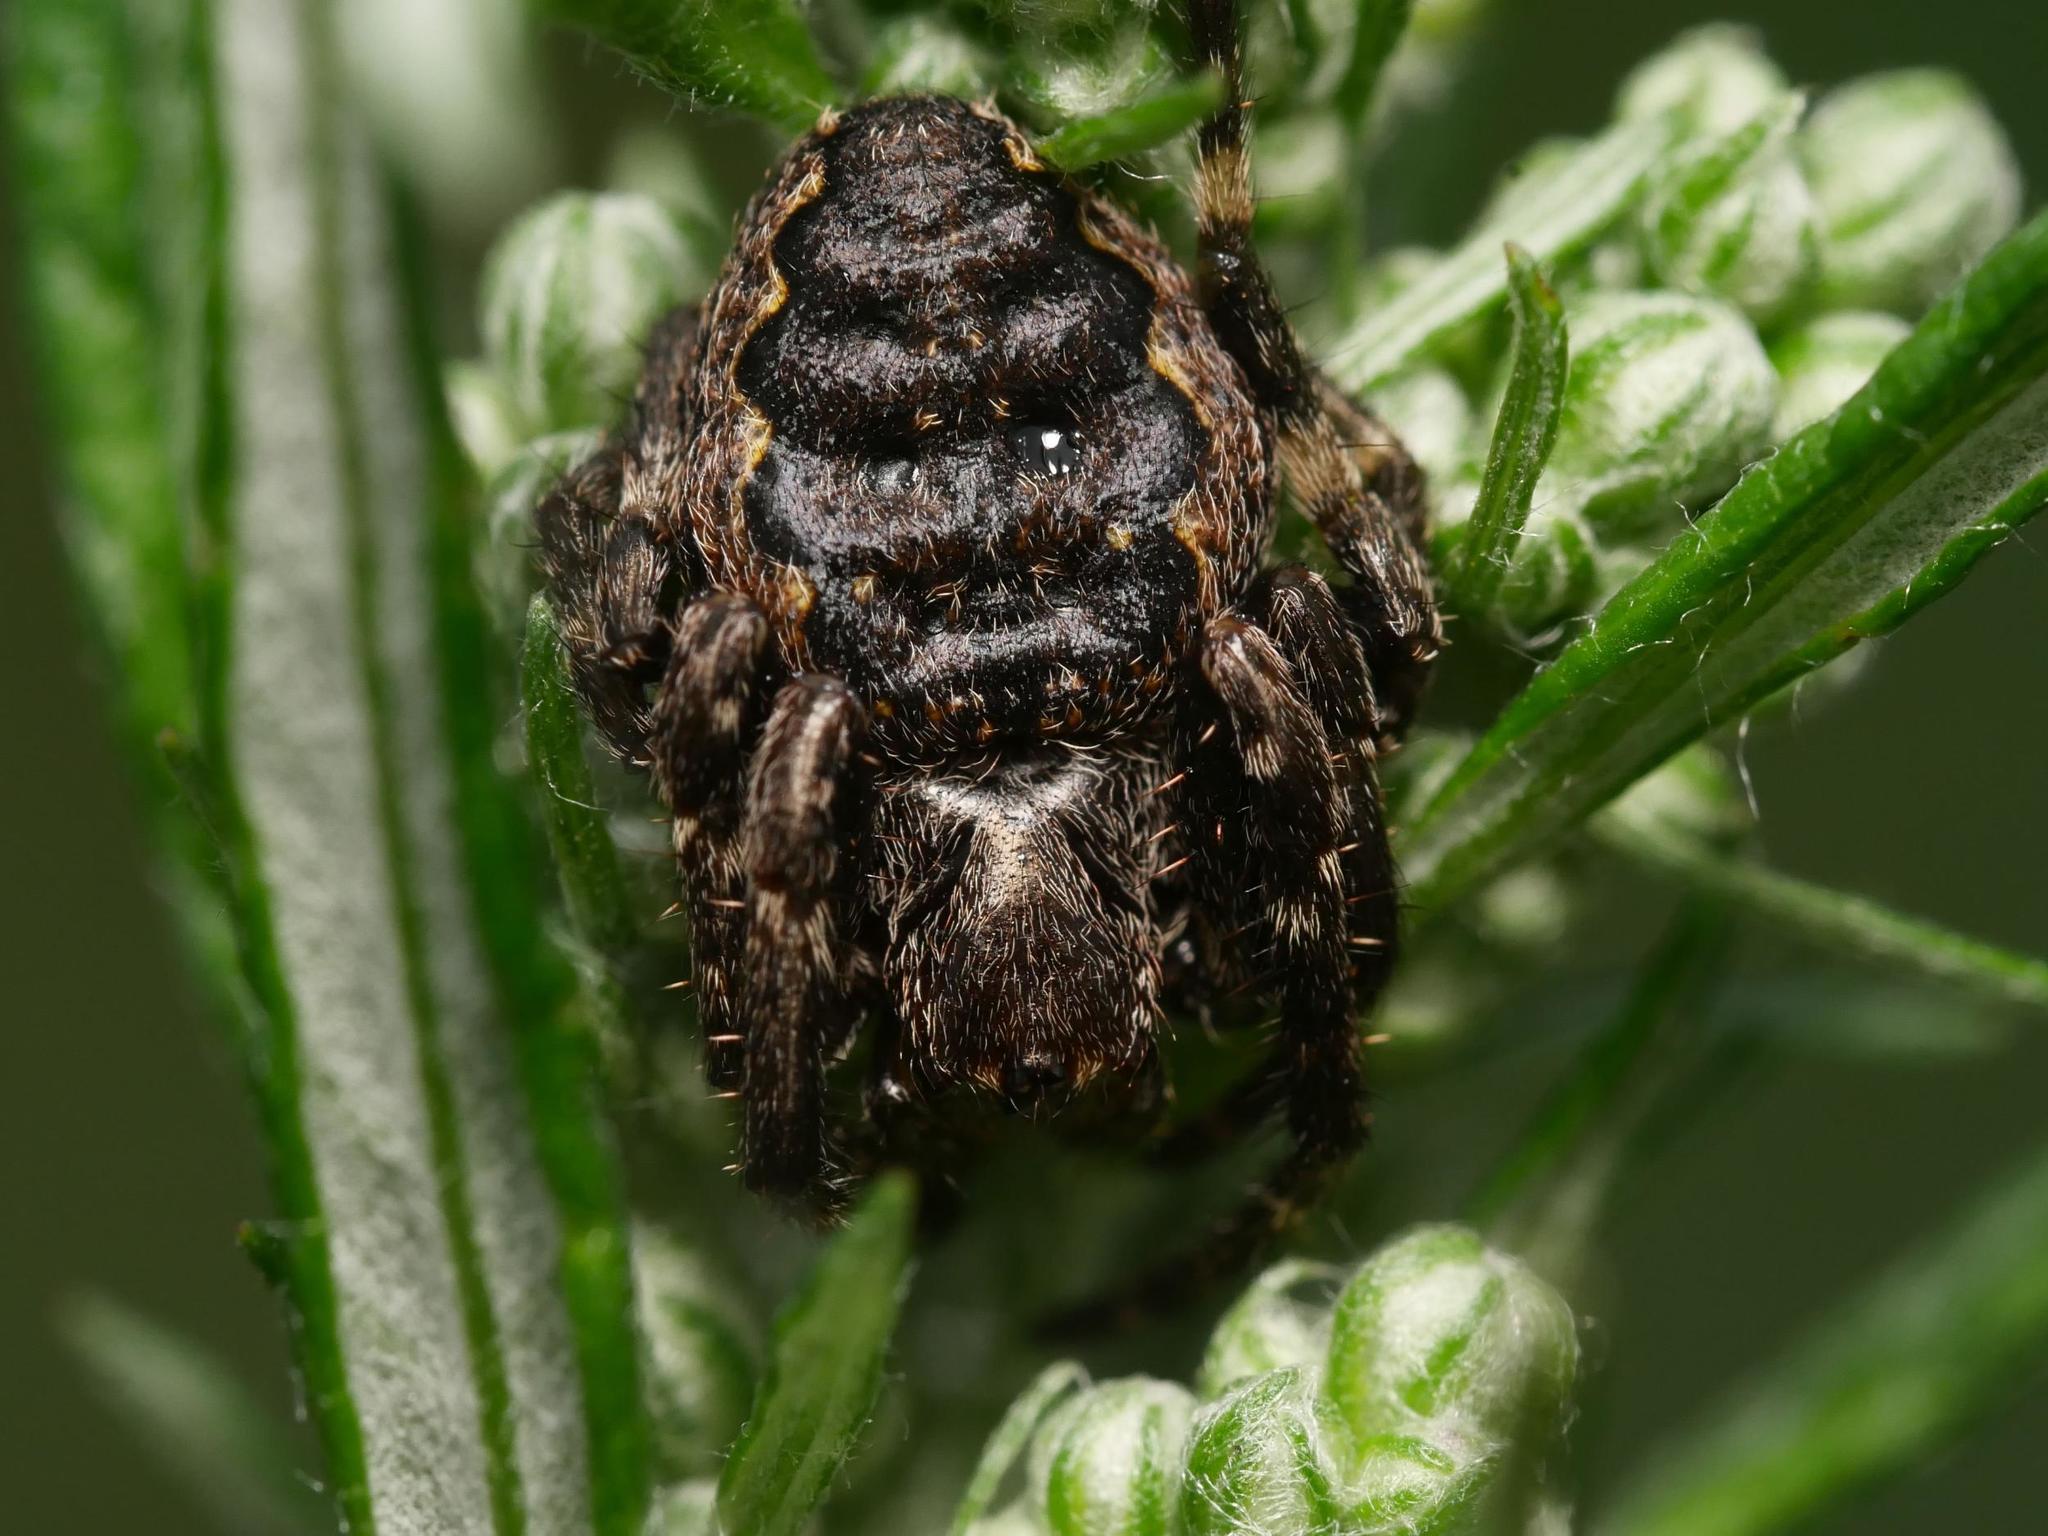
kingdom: Animalia
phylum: Arthropoda
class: Arachnida
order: Araneae
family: Araneidae
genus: Nuctenea
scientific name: Nuctenea umbratica
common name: Toad spider
